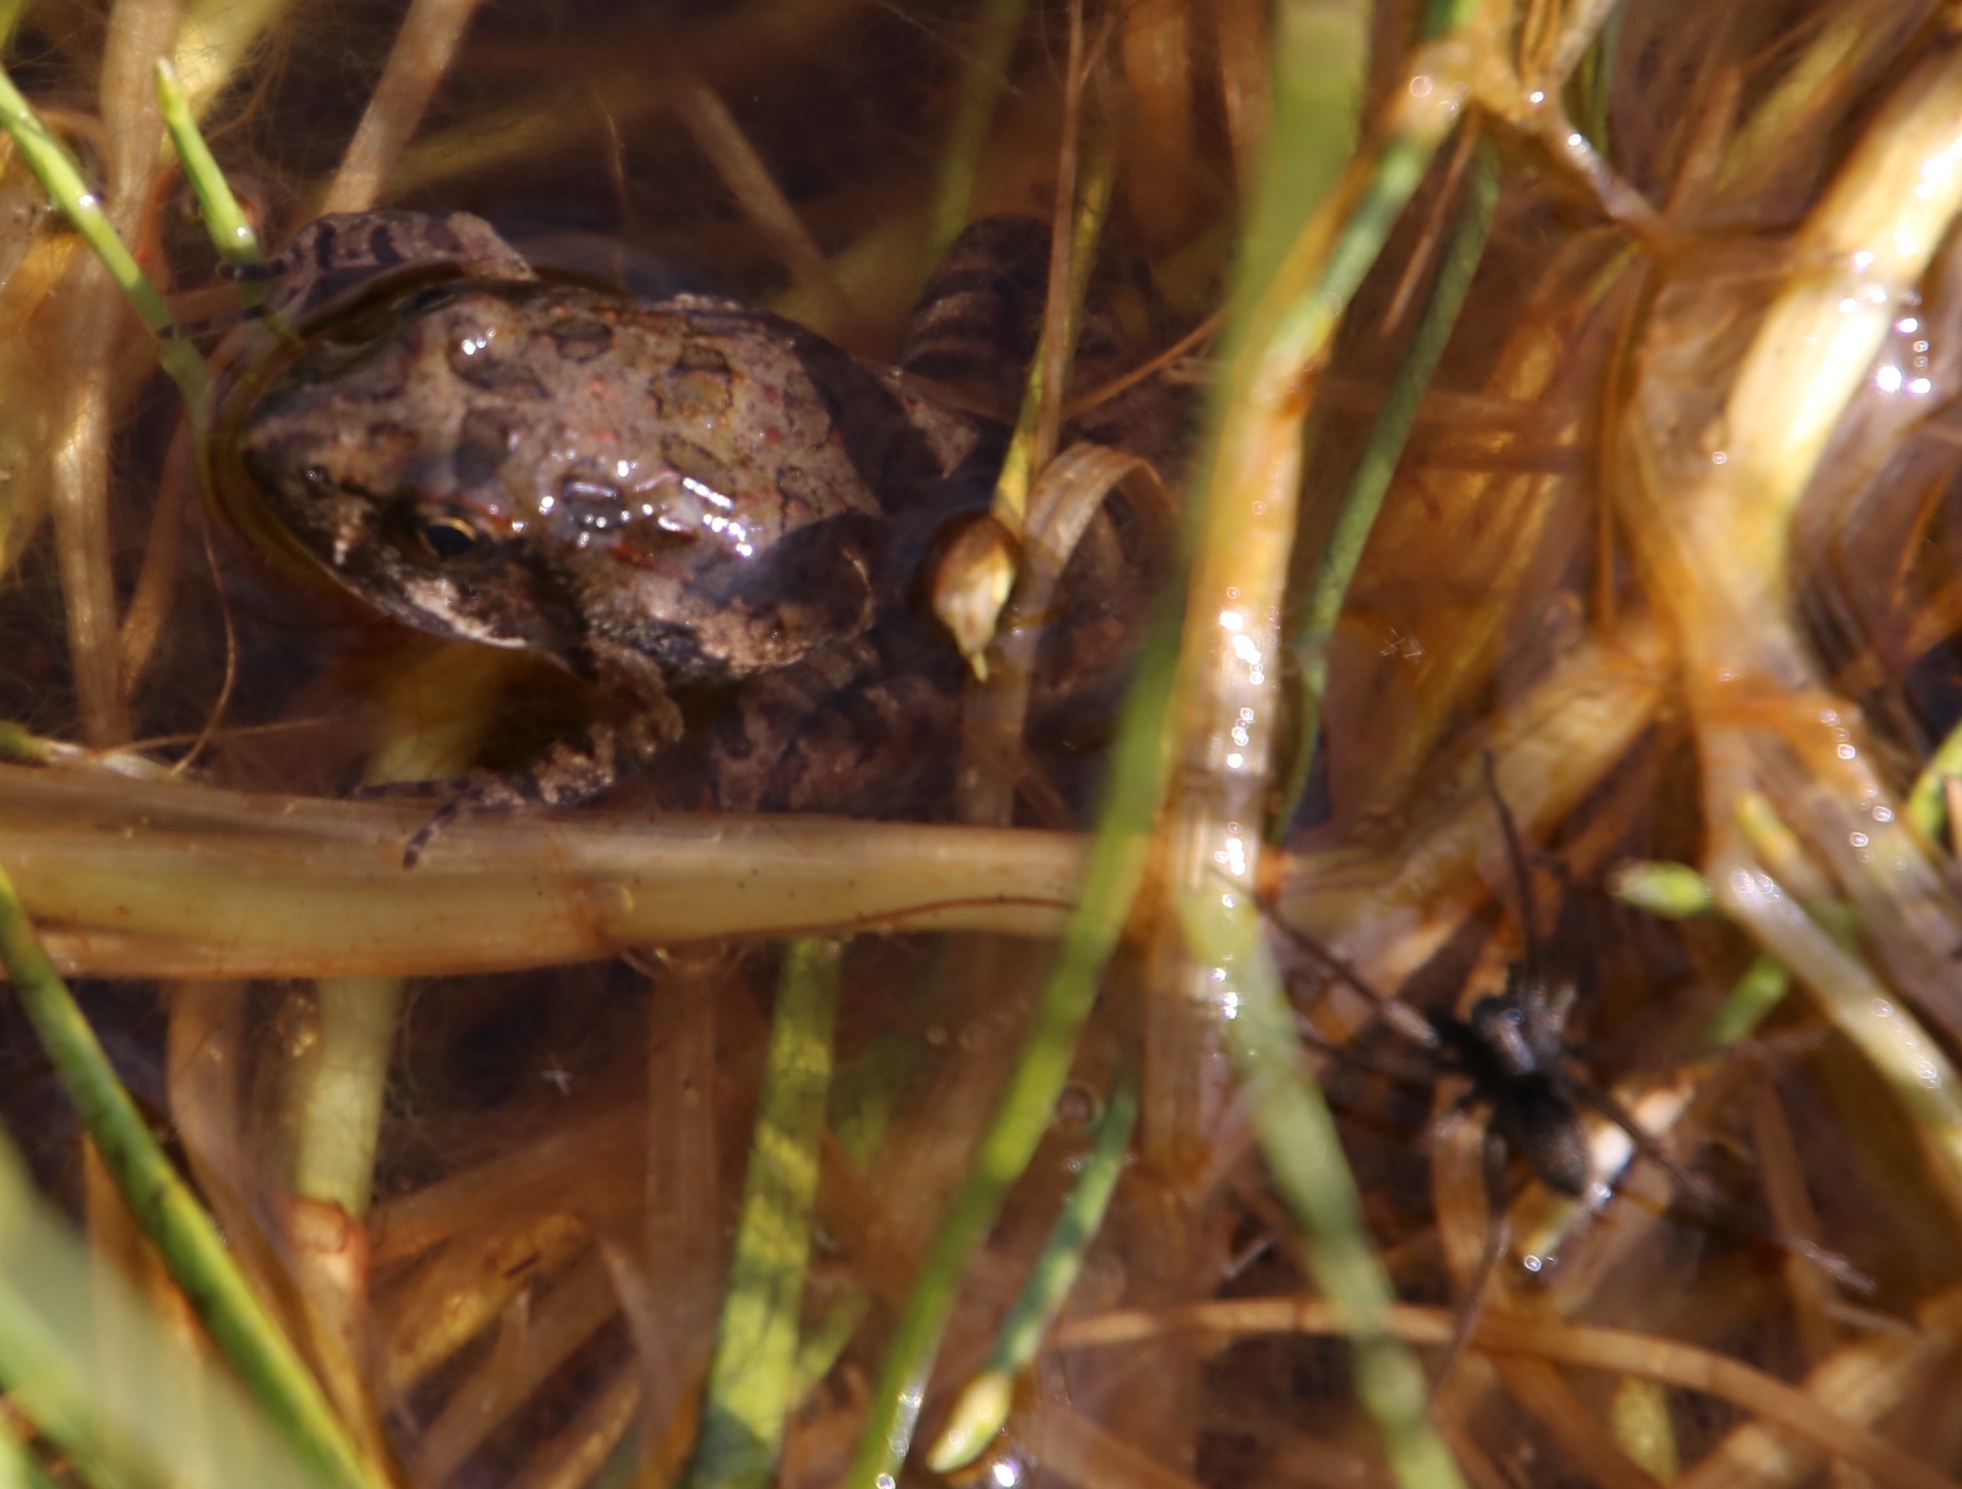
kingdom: Animalia
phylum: Chordata
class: Amphibia
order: Anura
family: Pyxicephalidae
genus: Strongylopus
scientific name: Strongylopus grayii
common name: Gray's stream frog
